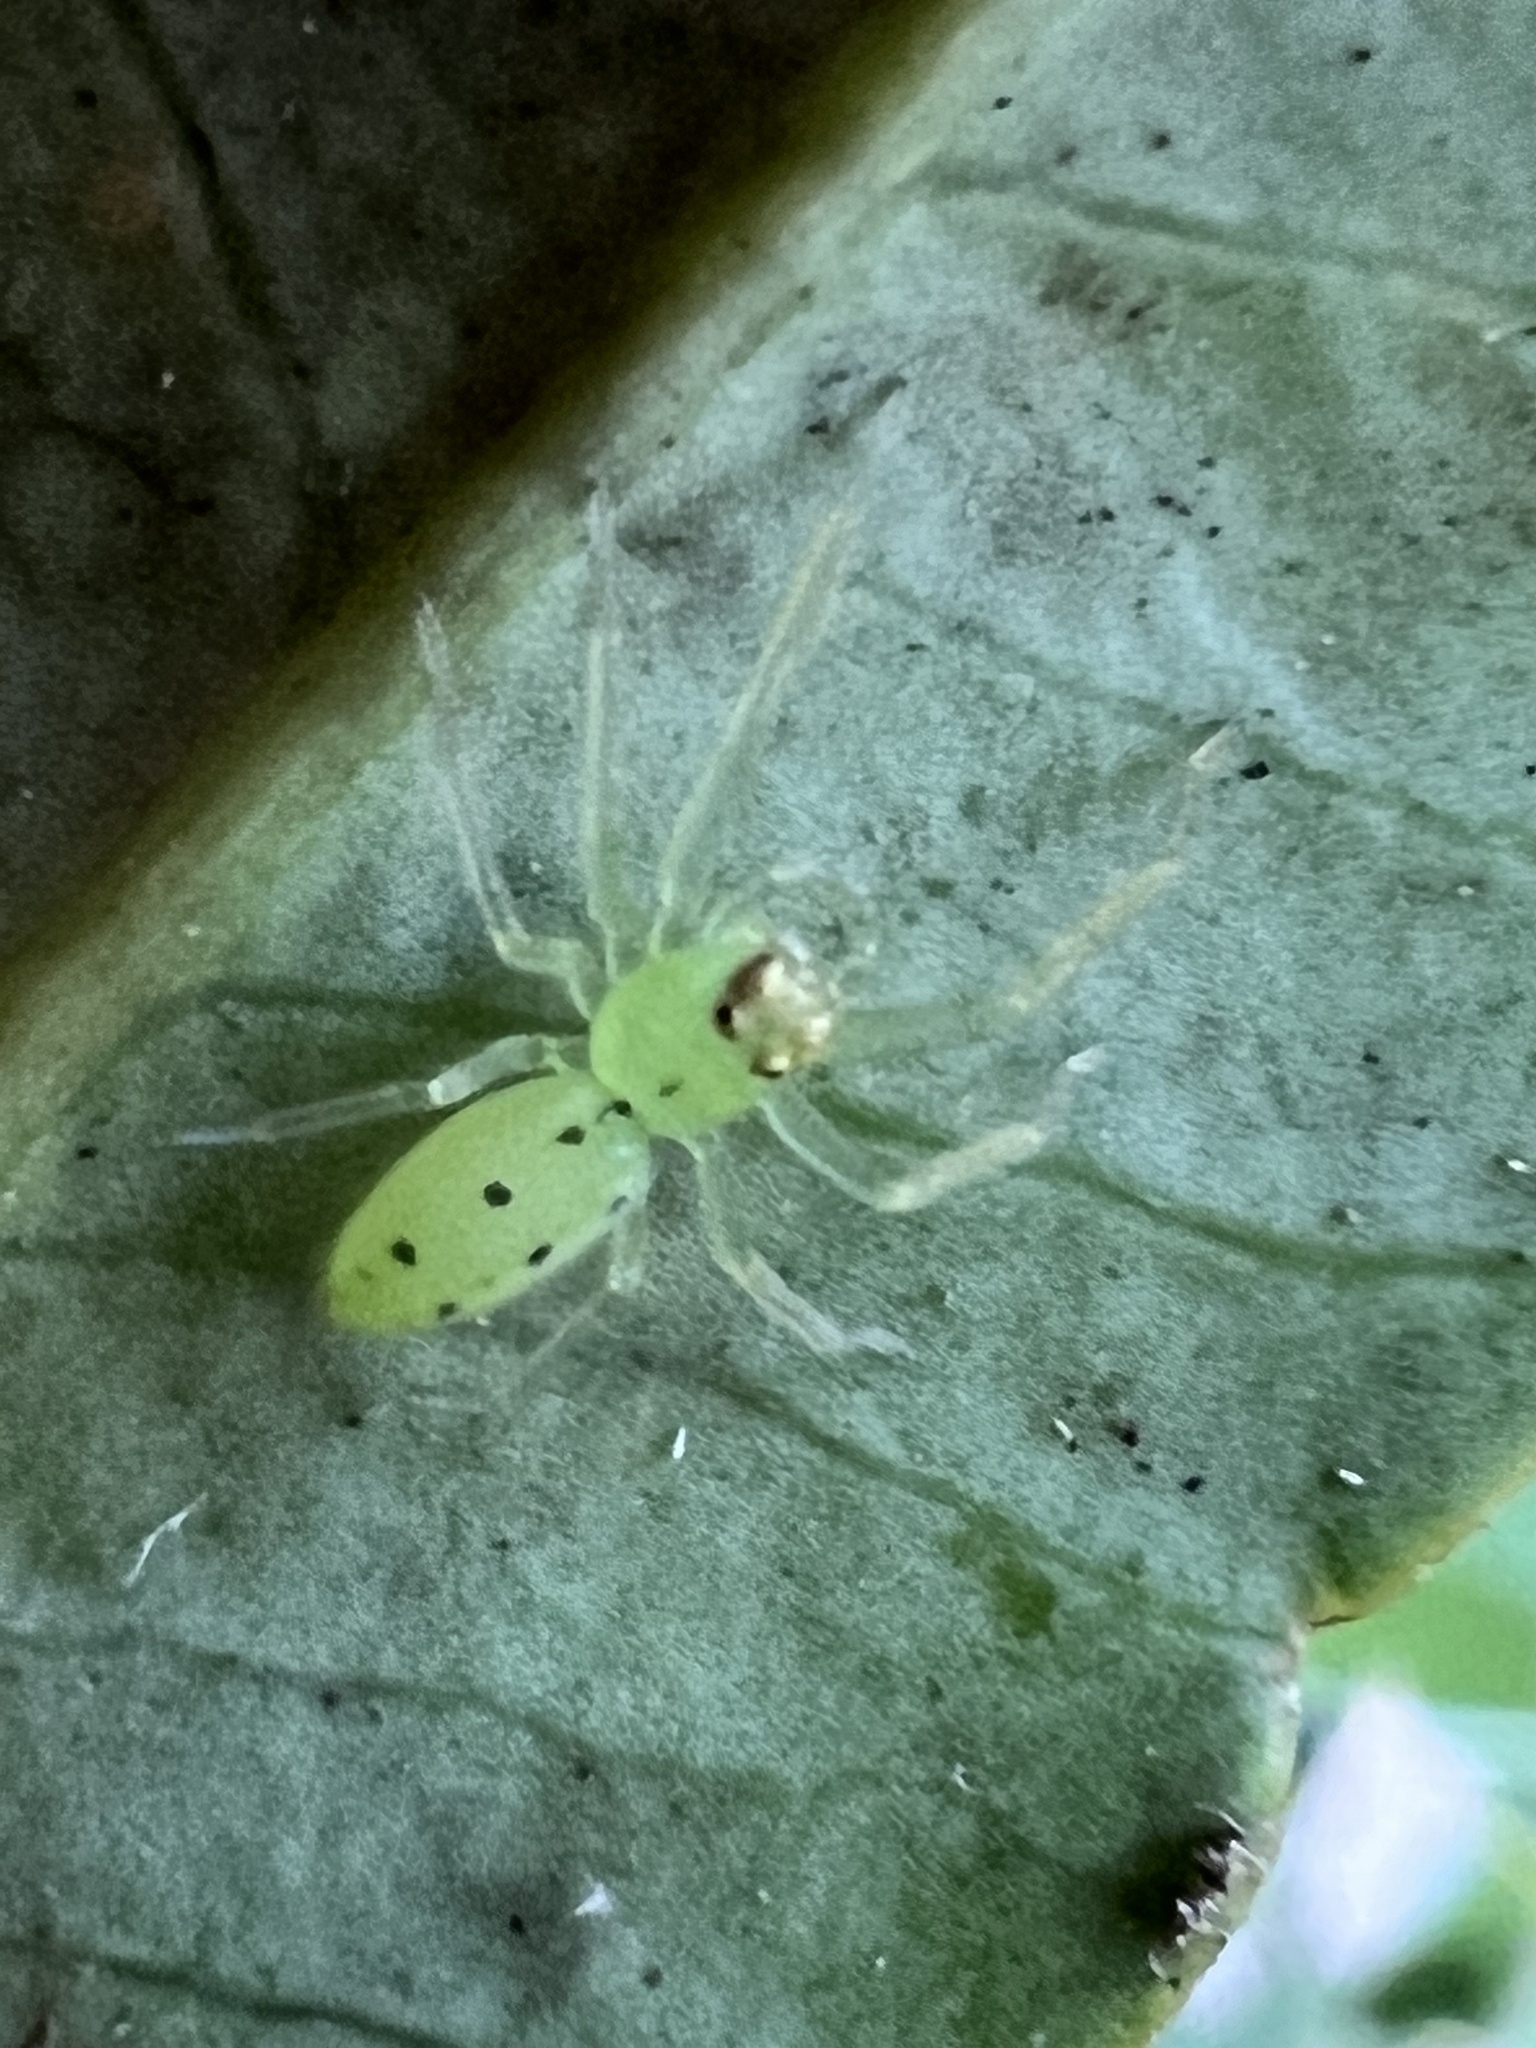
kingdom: Animalia
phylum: Arthropoda
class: Arachnida
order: Araneae
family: Salticidae
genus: Lyssomanes
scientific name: Lyssomanes viridis
